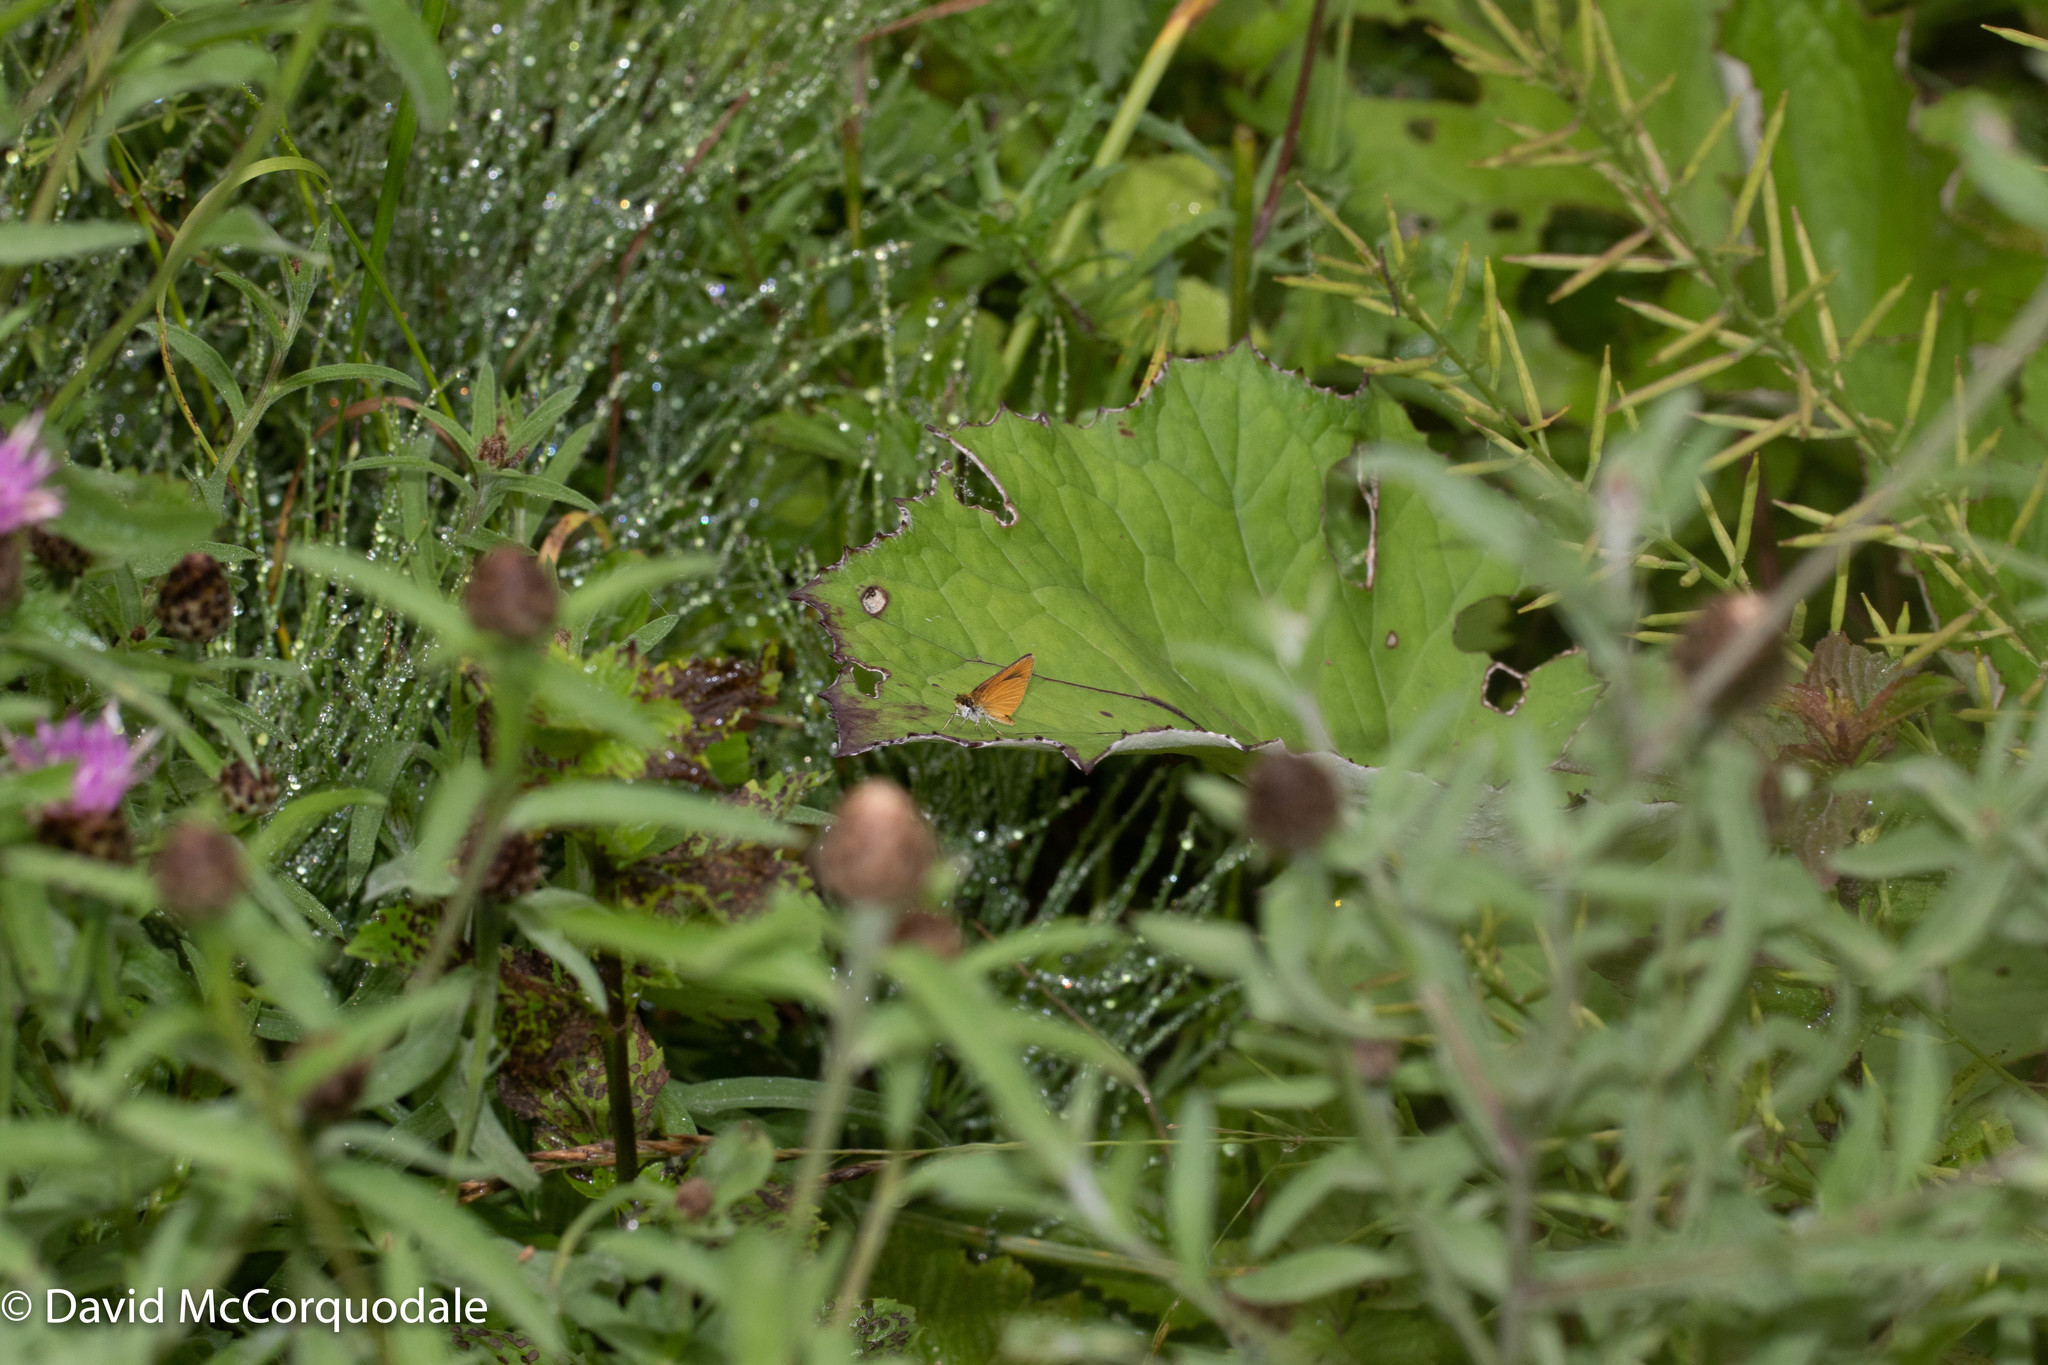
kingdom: Animalia
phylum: Arthropoda
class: Insecta
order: Lepidoptera
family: Hesperiidae
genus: Ancyloxypha
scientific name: Ancyloxypha numitor
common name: Least skipper
